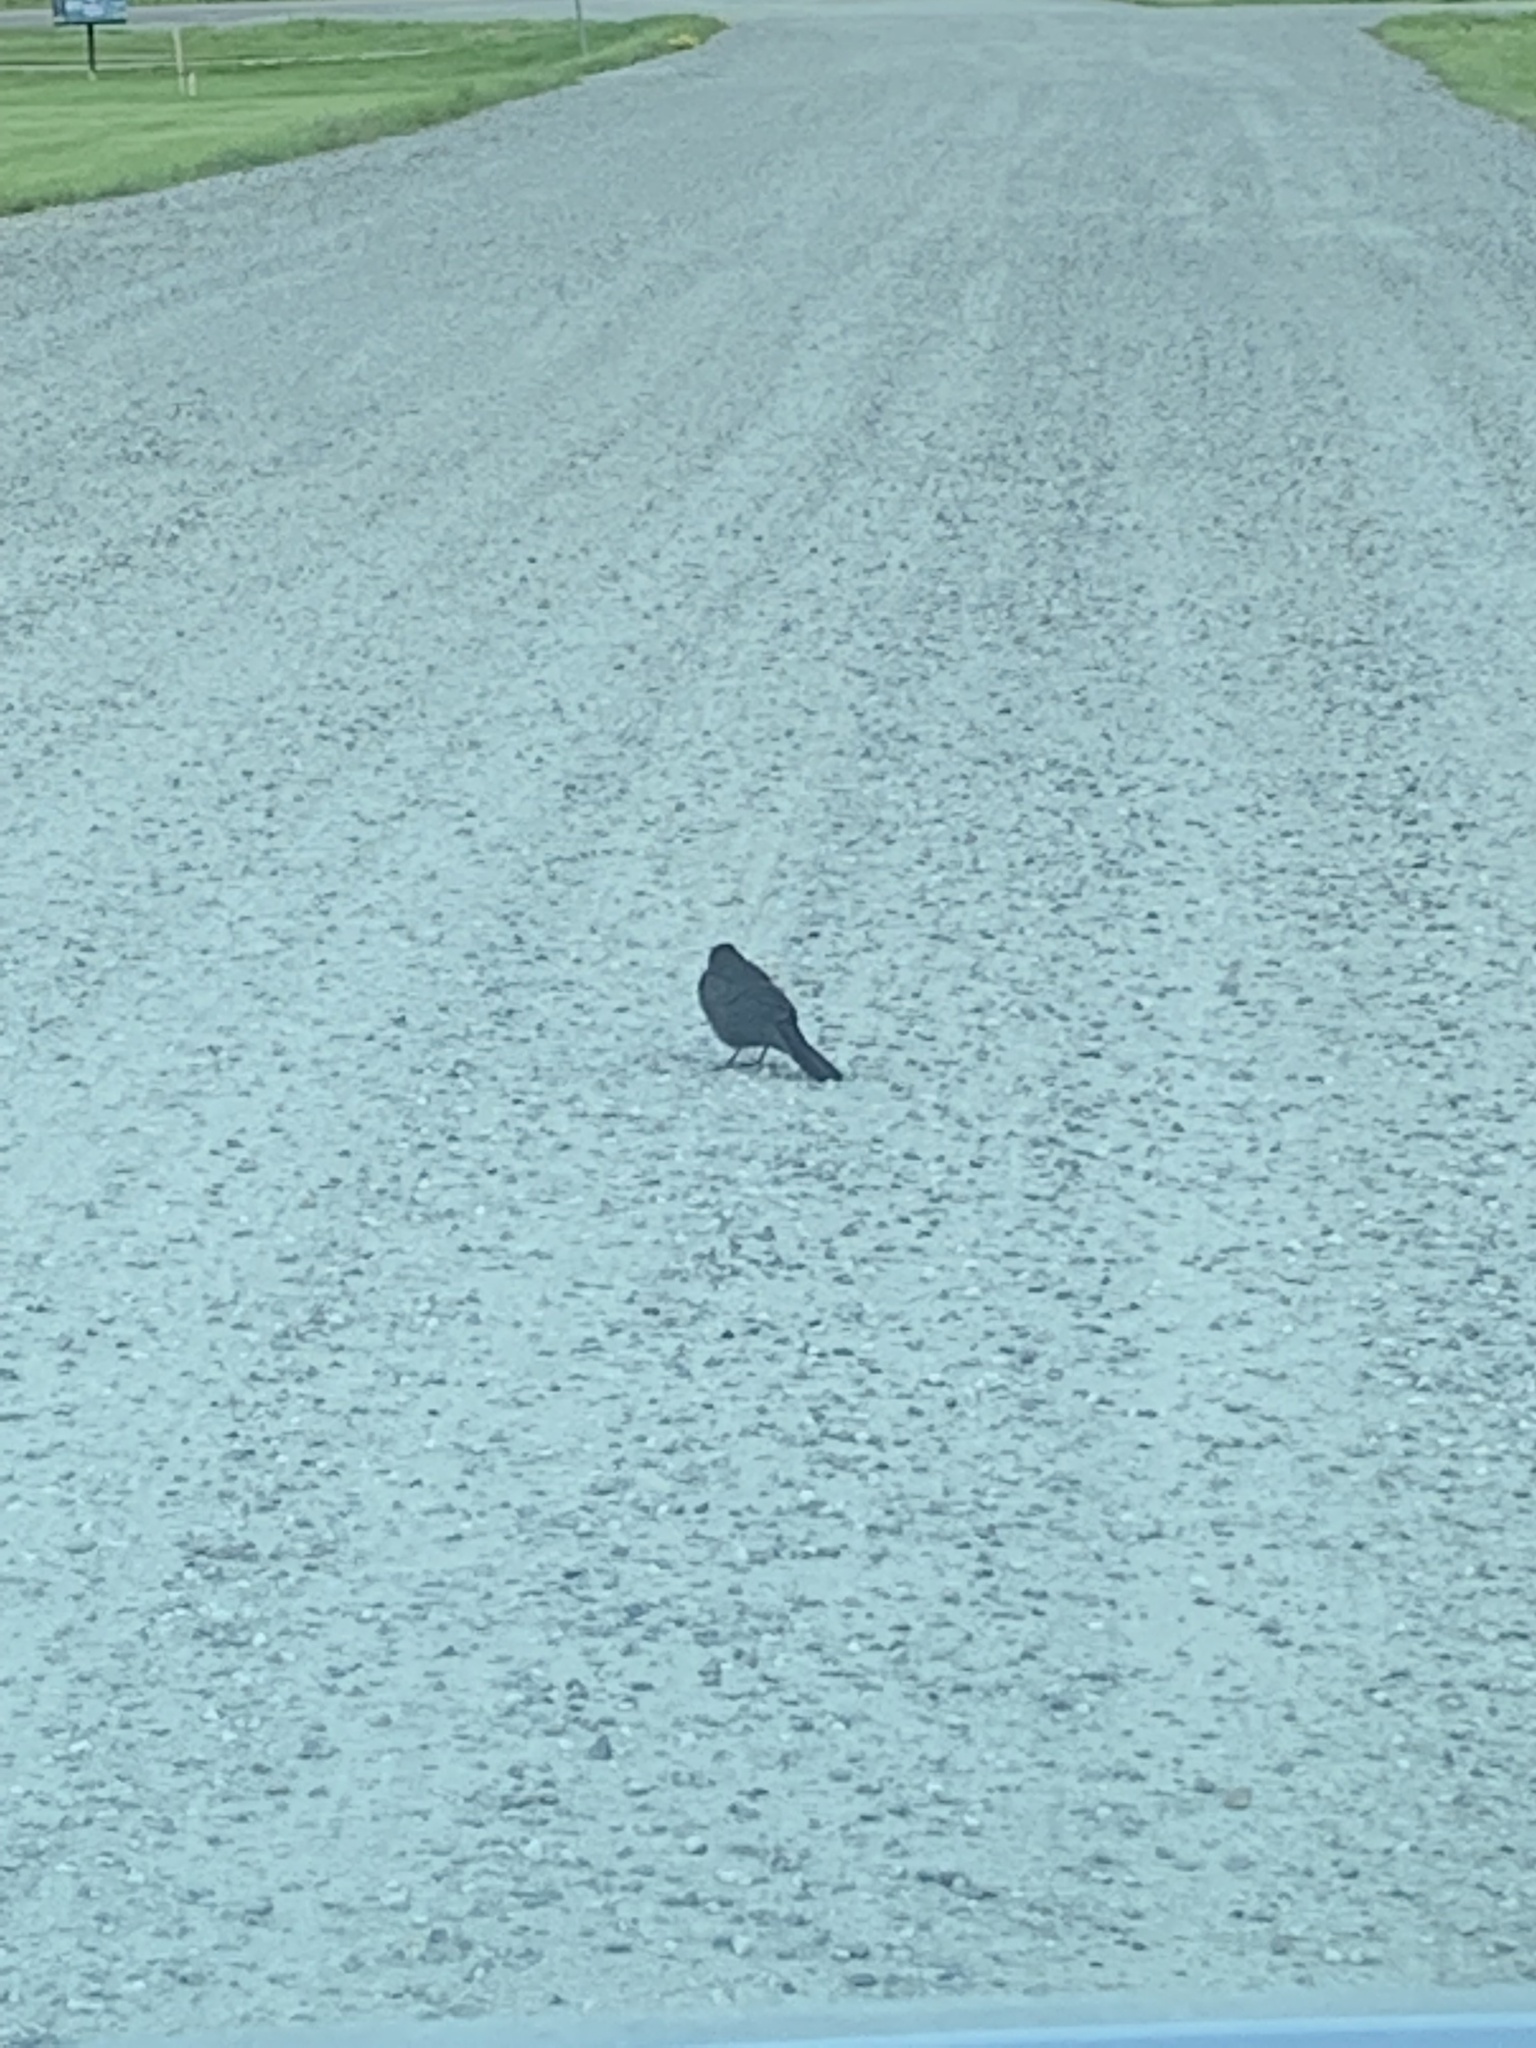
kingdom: Animalia
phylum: Chordata
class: Aves
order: Passeriformes
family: Icteridae
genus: Quiscalus
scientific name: Quiscalus quiscula
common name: Common grackle
